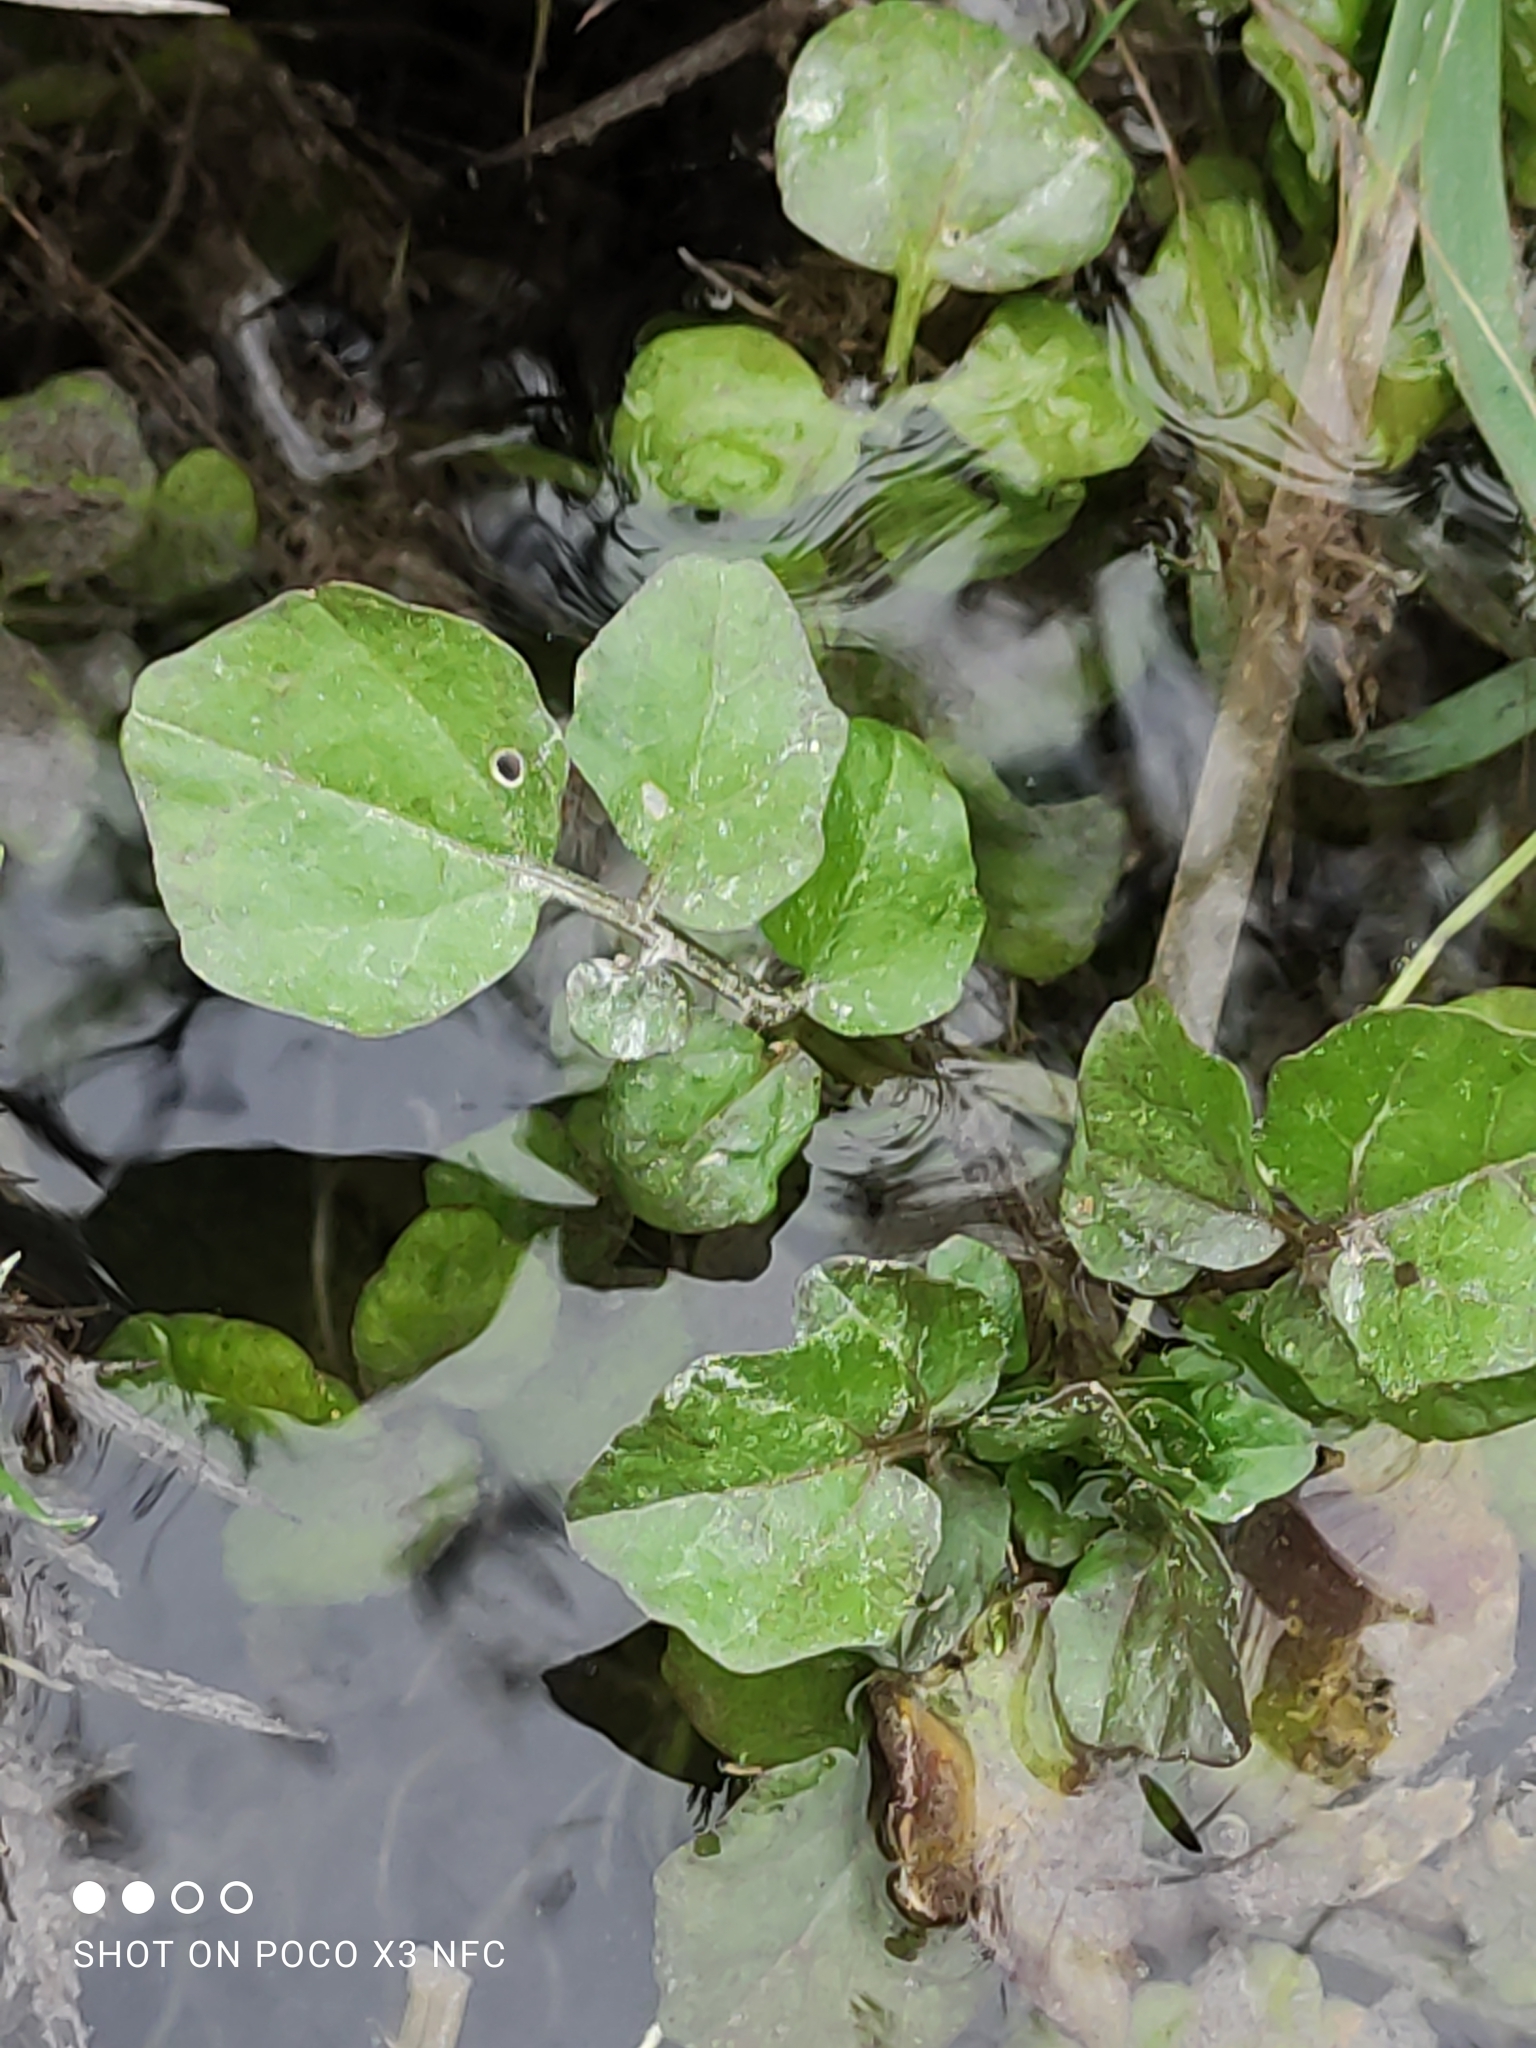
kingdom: Plantae
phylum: Tracheophyta
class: Magnoliopsida
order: Brassicales
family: Brassicaceae
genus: Nasturtium
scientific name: Nasturtium officinale
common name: Watercress
